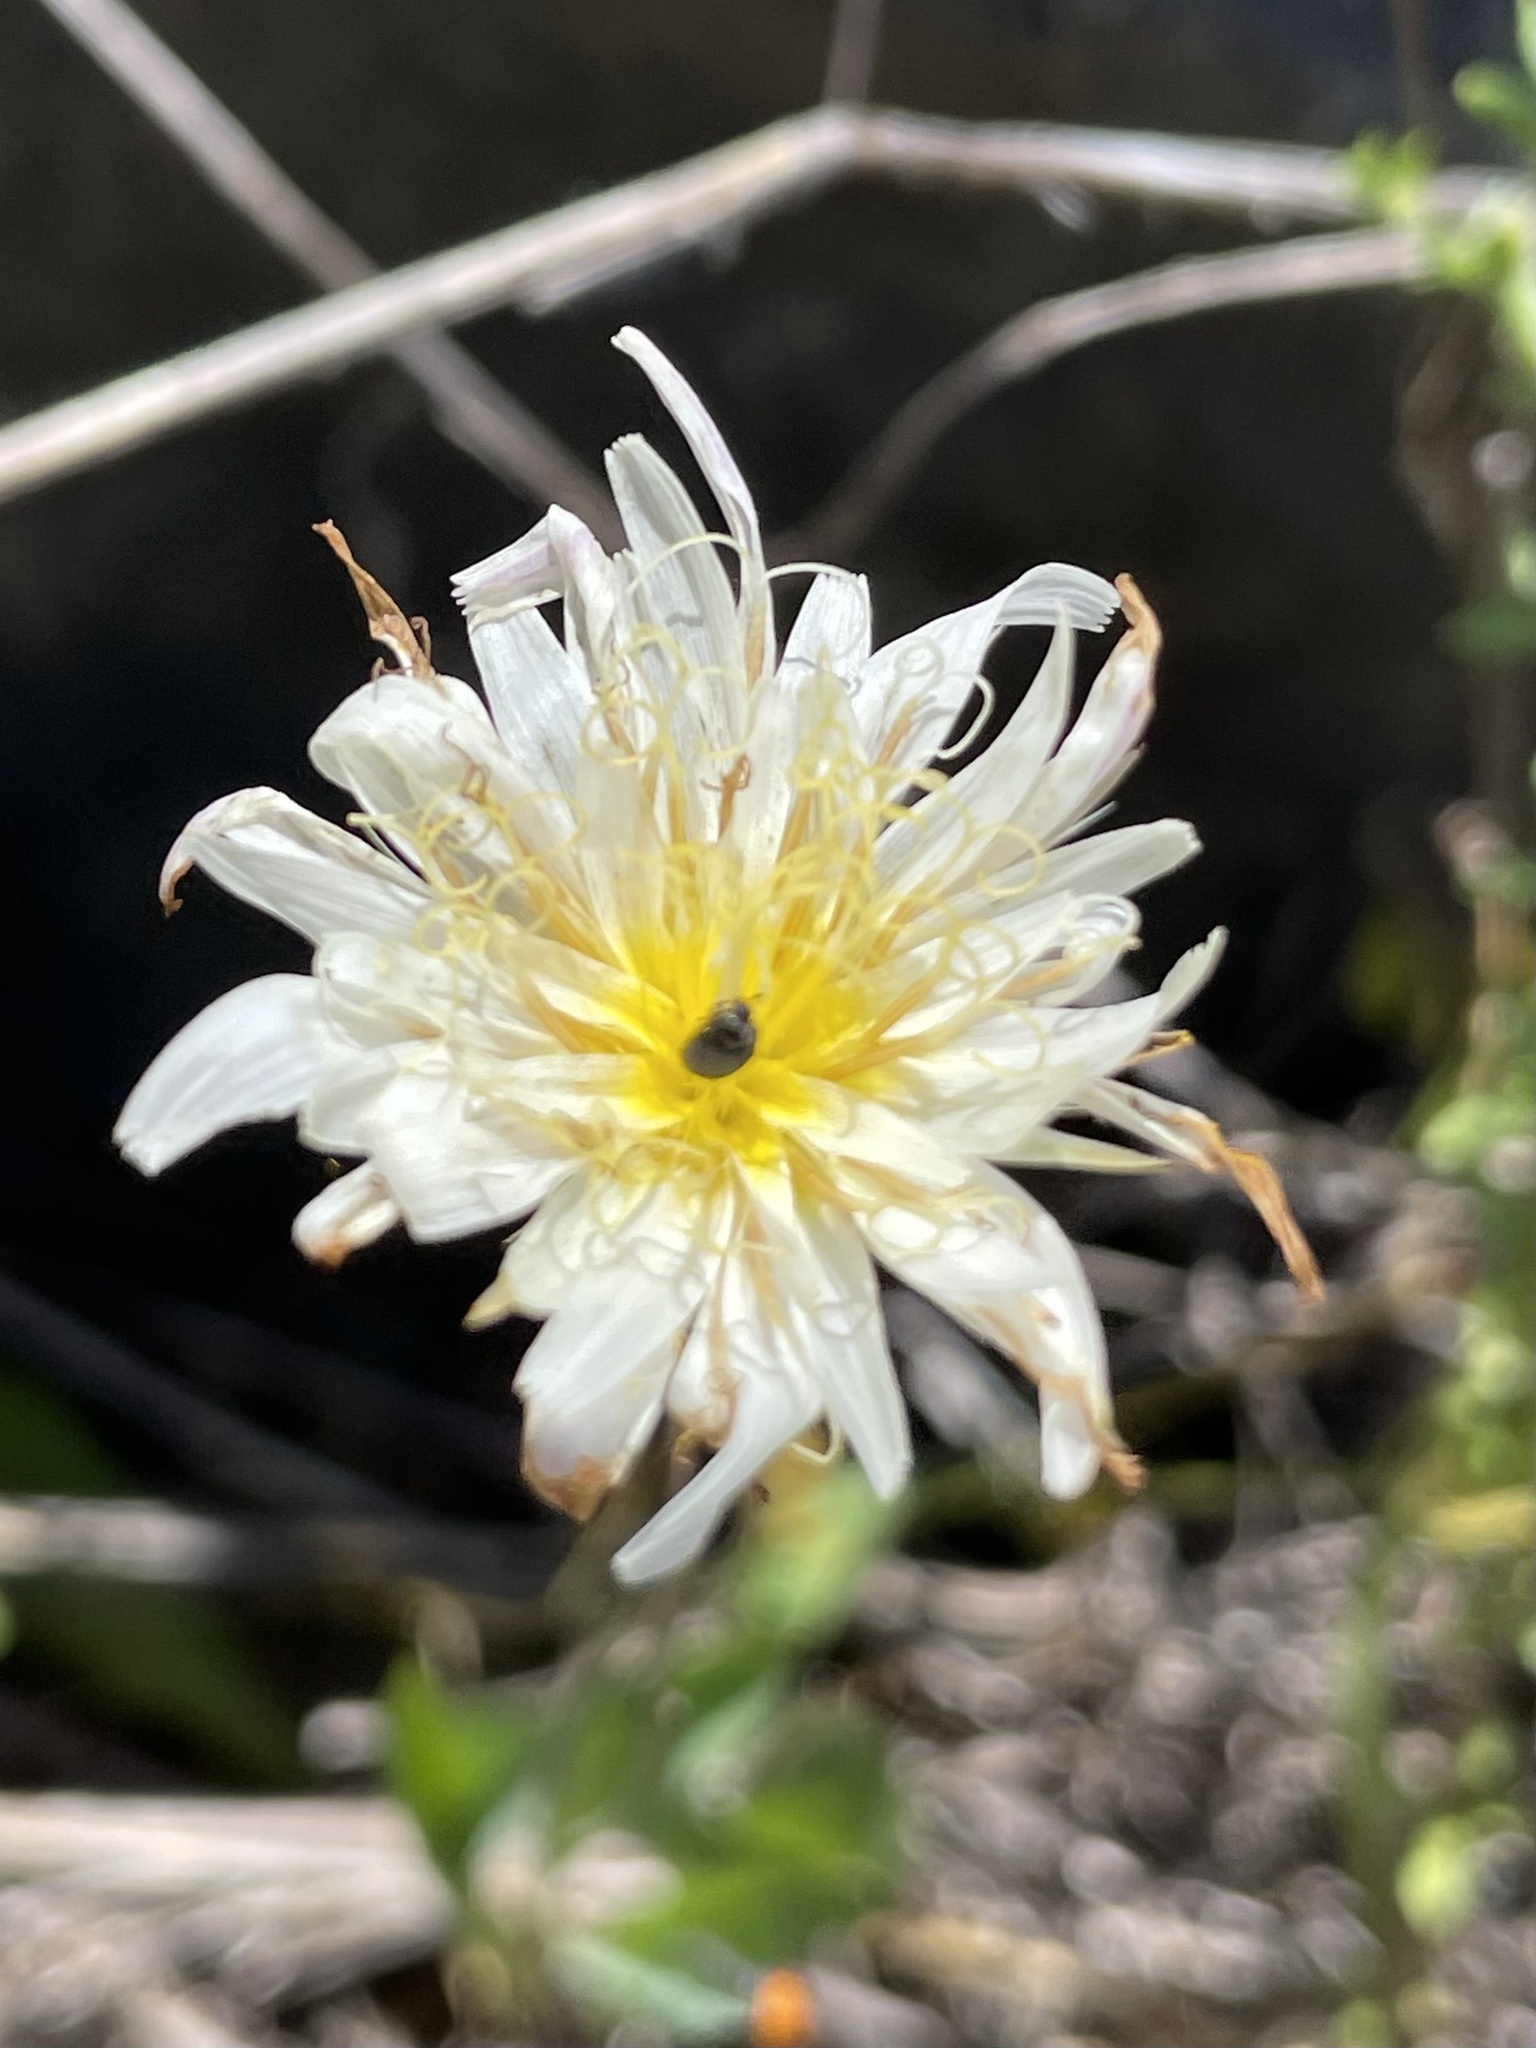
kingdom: Plantae
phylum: Tracheophyta
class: Magnoliopsida
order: Asterales
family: Asteraceae
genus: Pinaropappus
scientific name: Pinaropappus roseus
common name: Rock-lettuce
